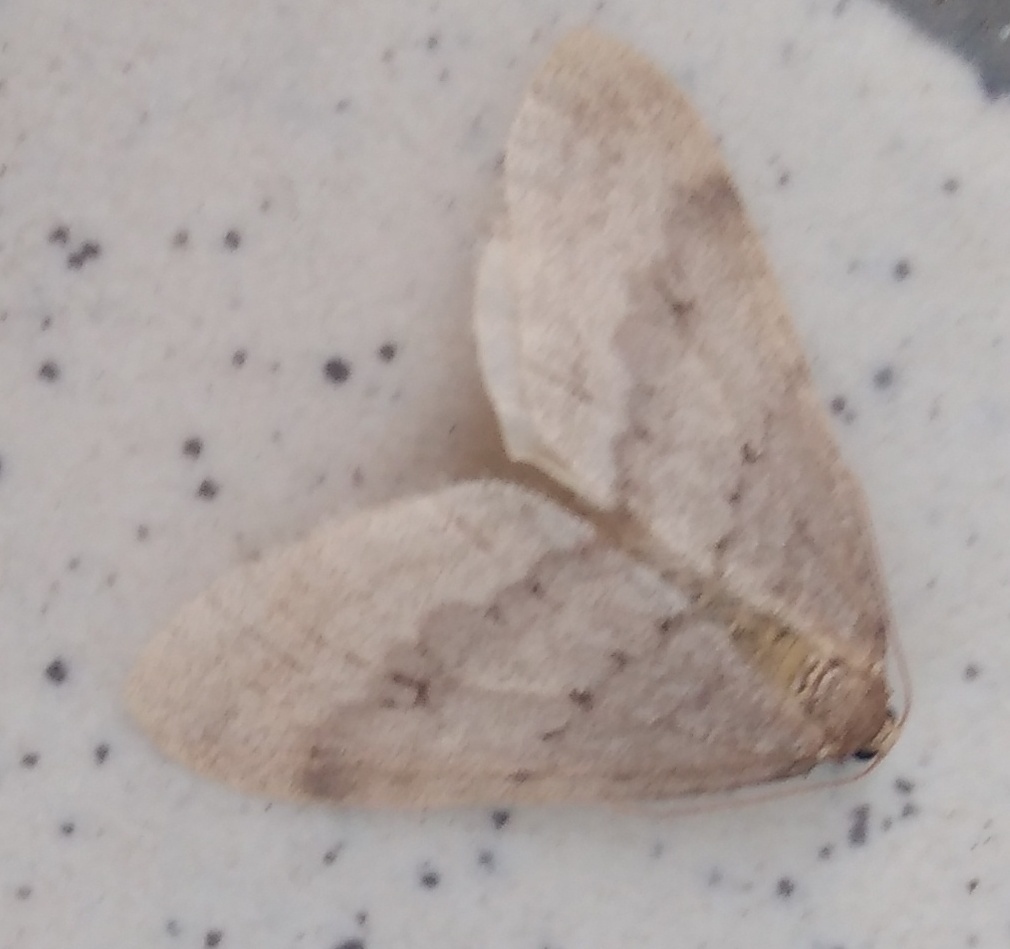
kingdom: Animalia
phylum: Arthropoda
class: Insecta
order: Lepidoptera
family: Geometridae
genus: Operophtera
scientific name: Operophtera fagata
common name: Northern winter moth
